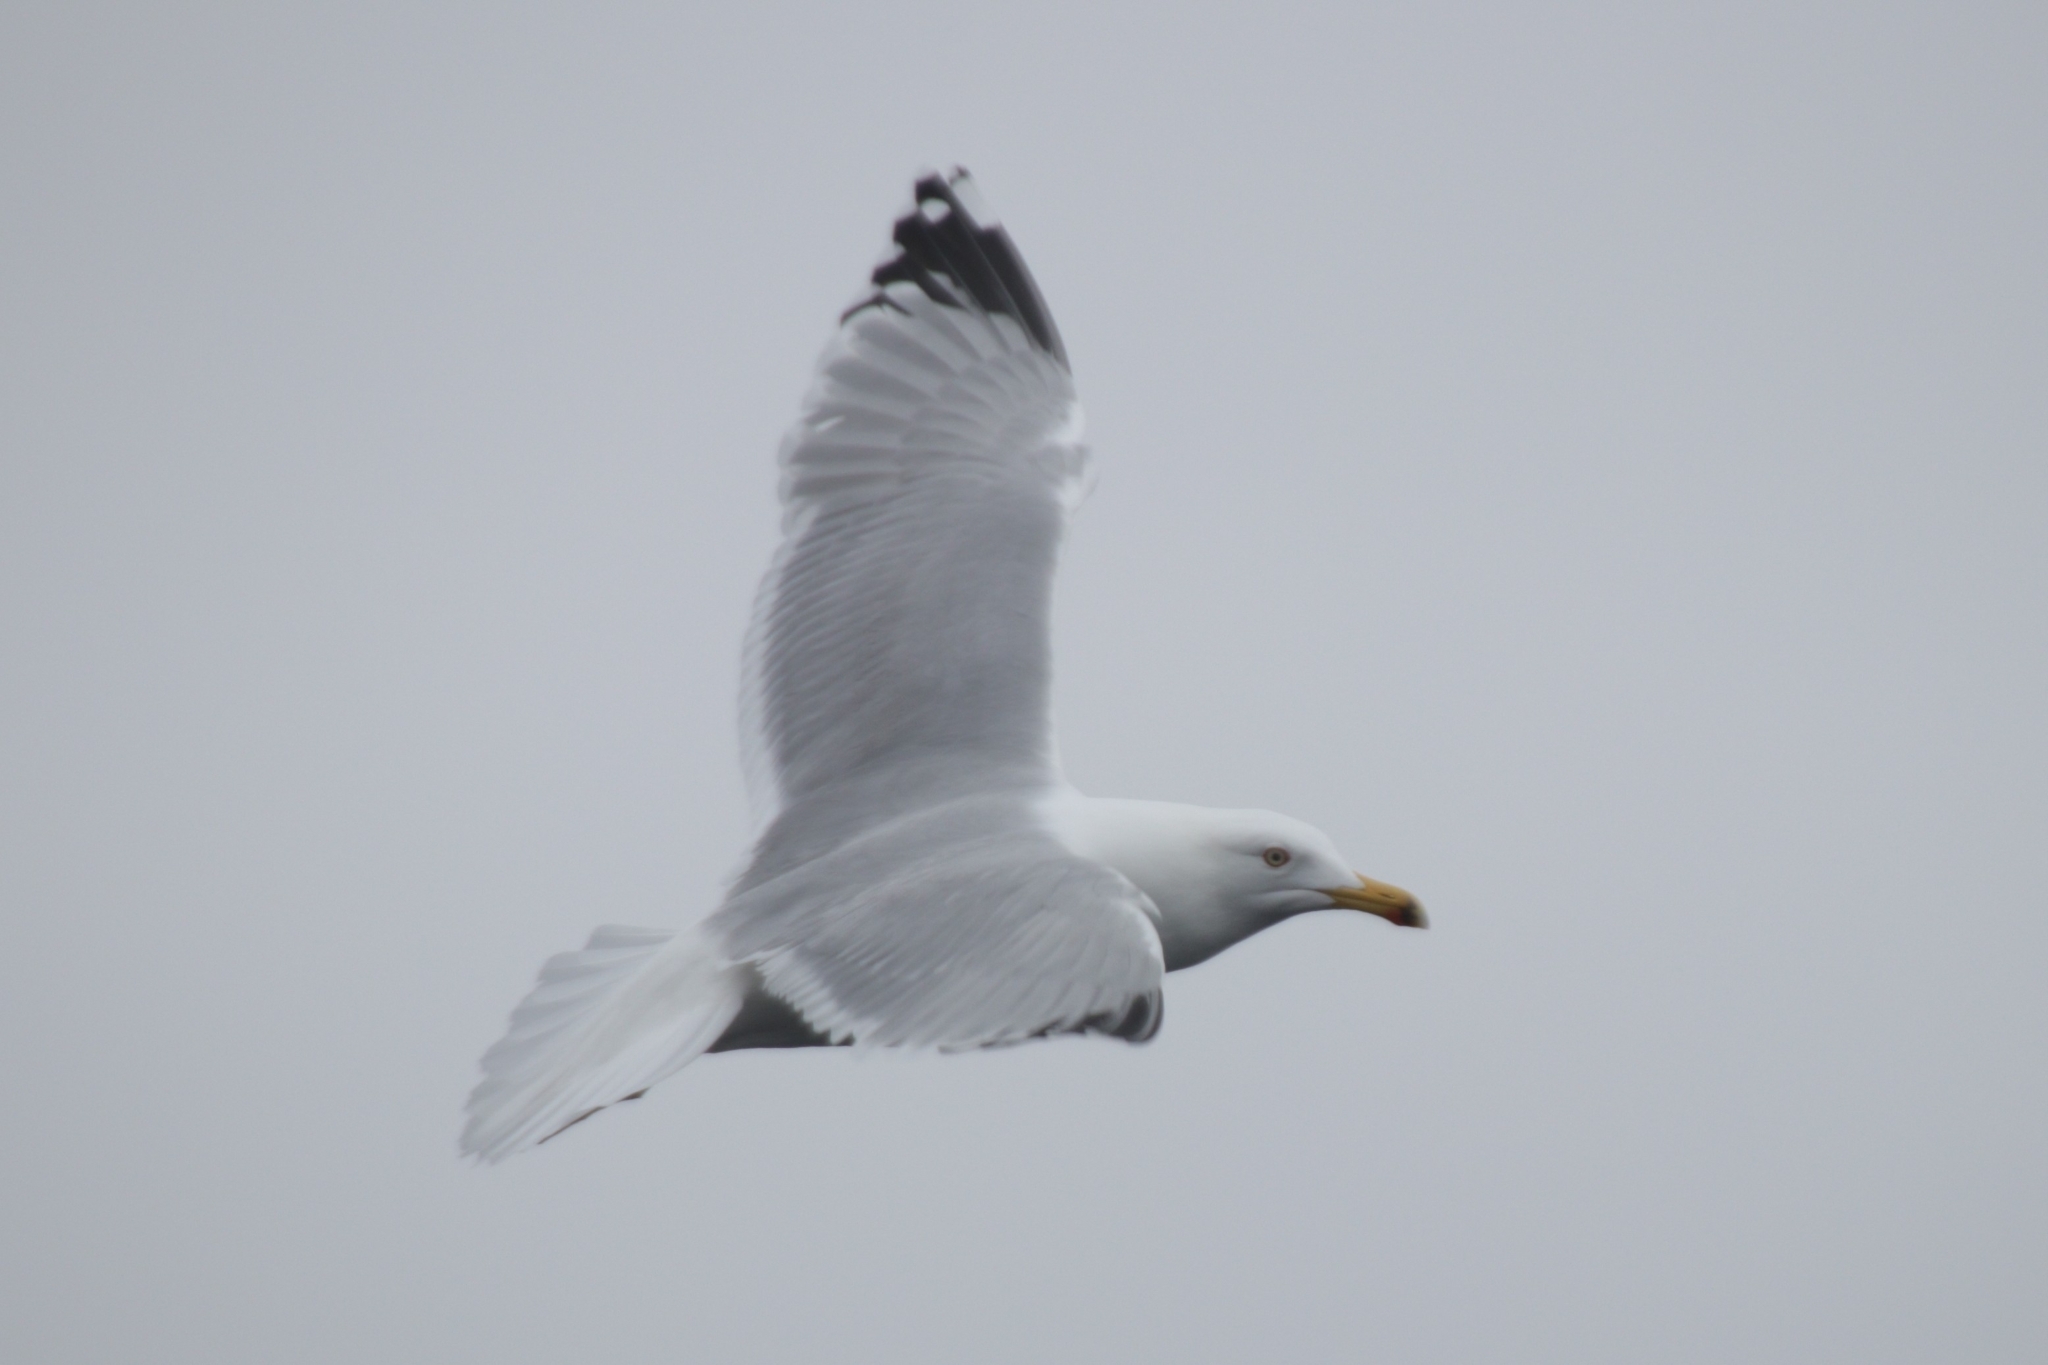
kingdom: Animalia
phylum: Chordata
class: Aves
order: Charadriiformes
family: Laridae
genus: Larus
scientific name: Larus argentatus
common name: Herring gull
